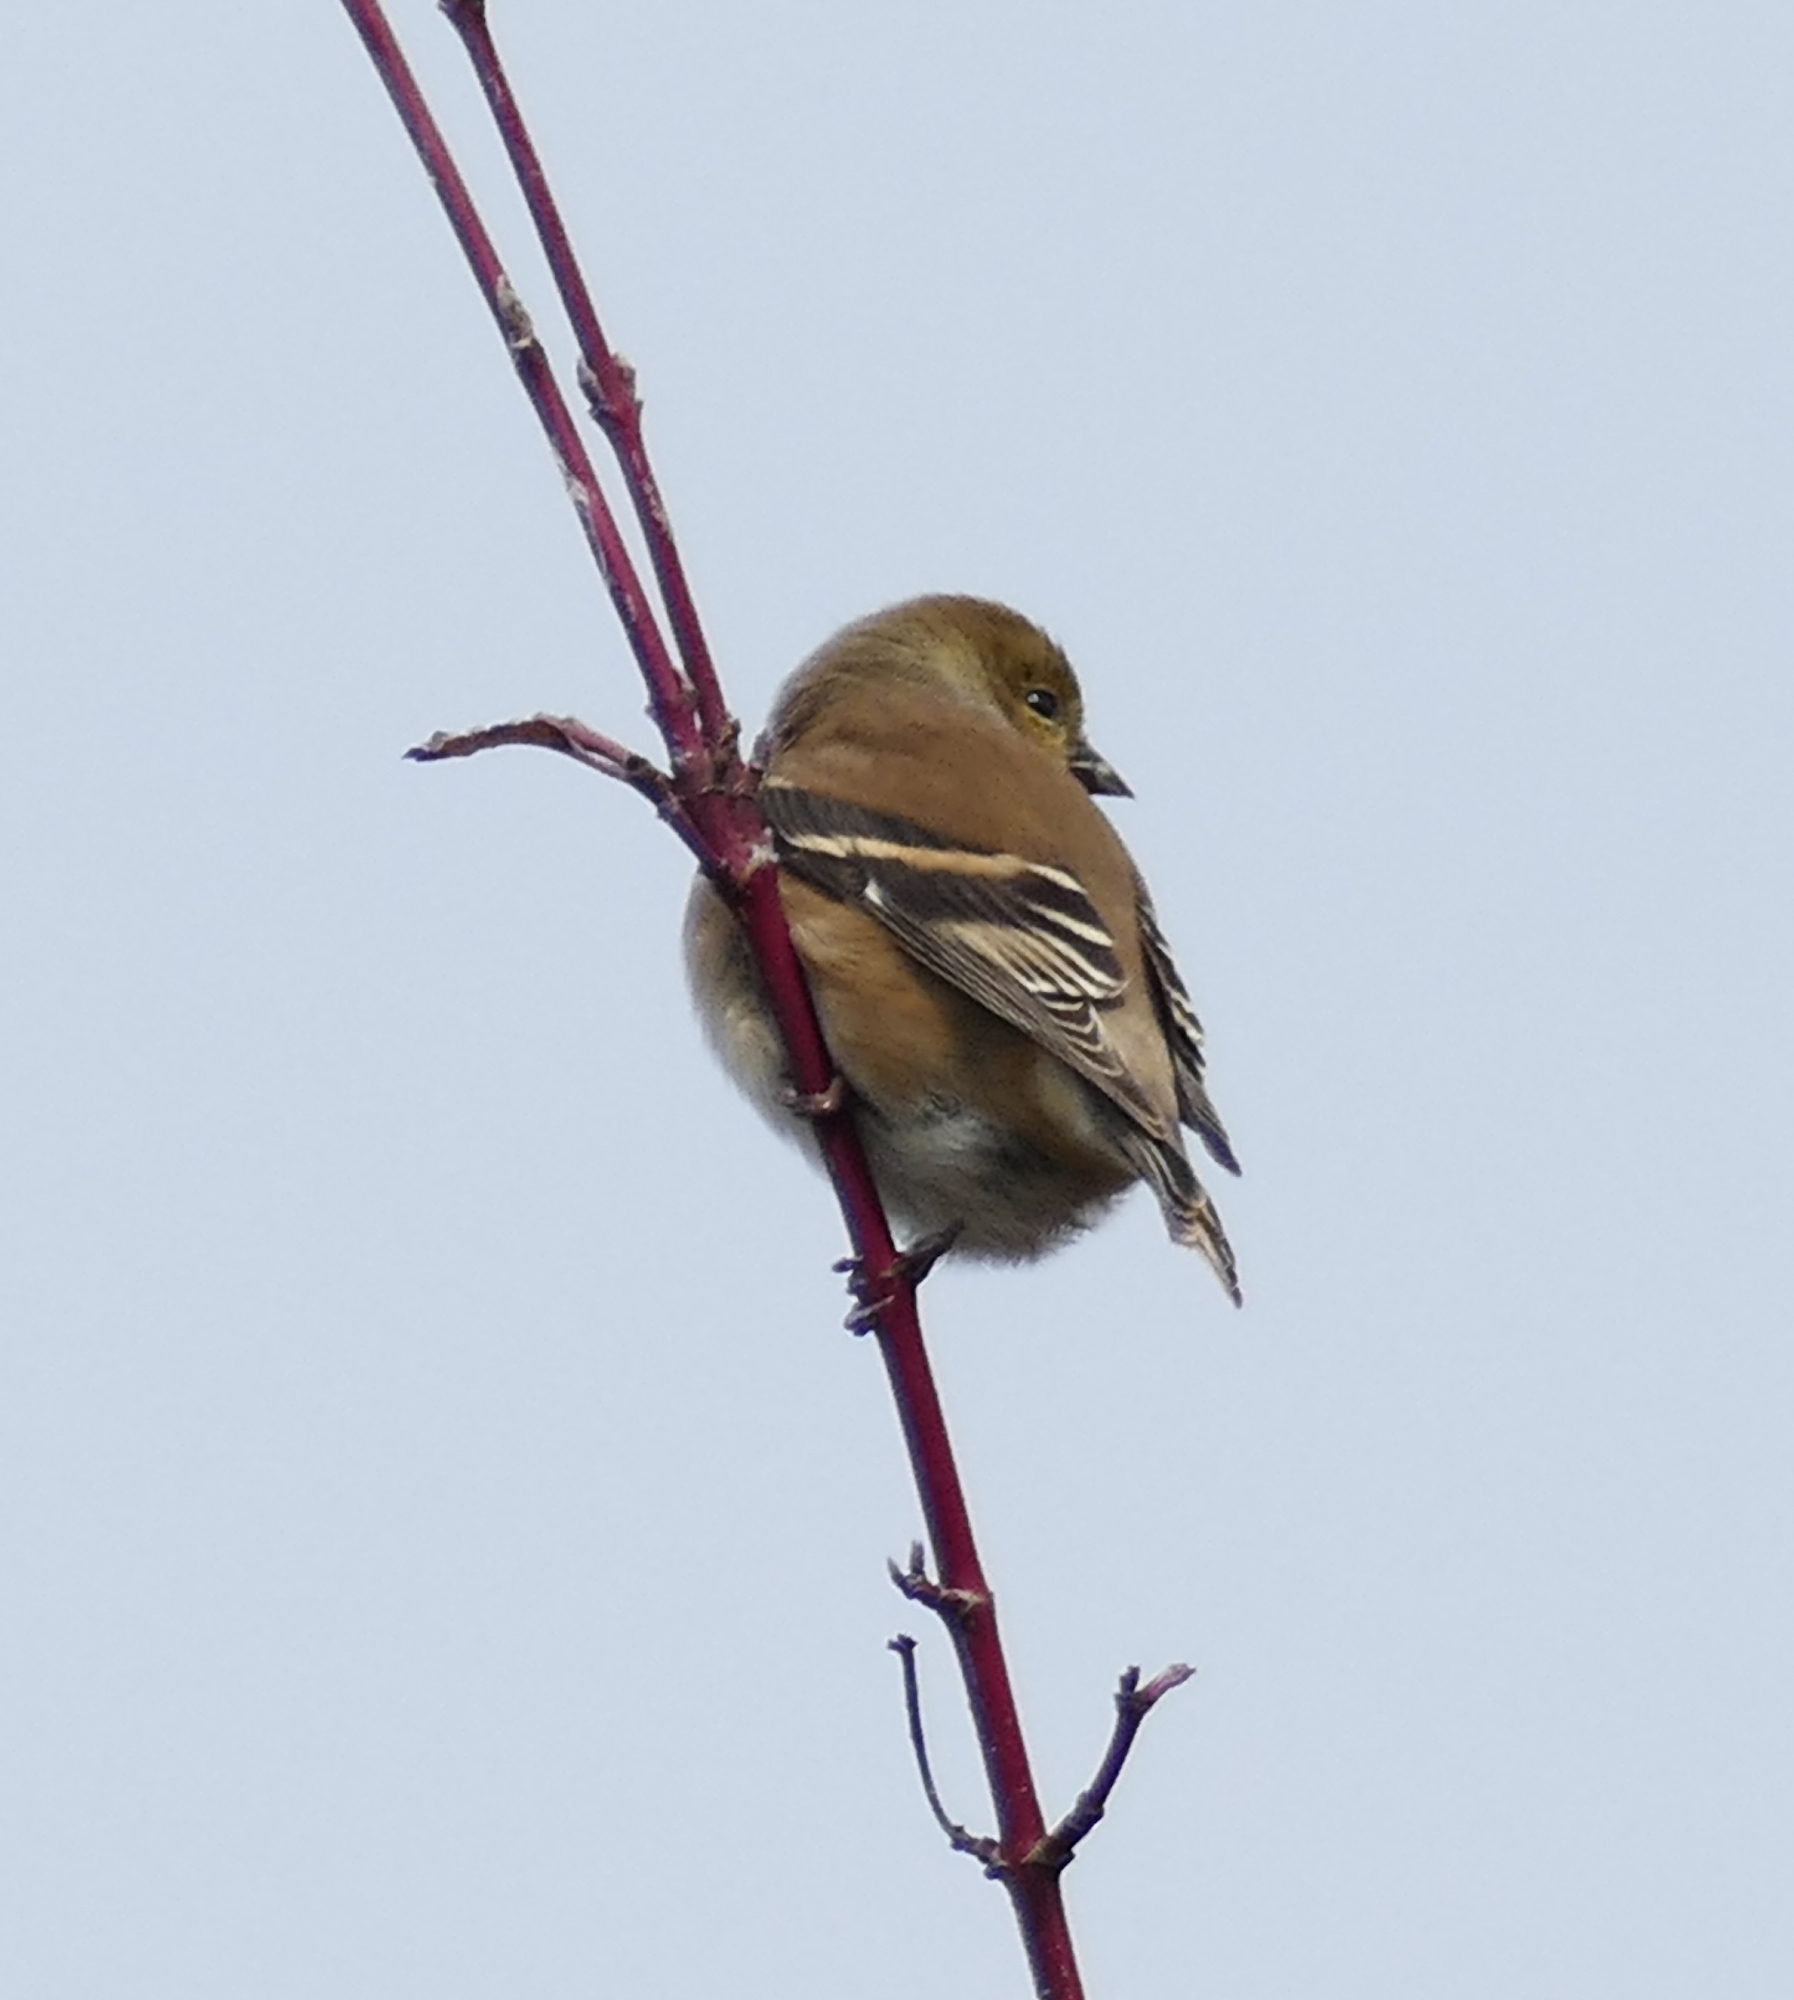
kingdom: Animalia
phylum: Chordata
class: Aves
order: Passeriformes
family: Fringillidae
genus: Spinus
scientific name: Spinus tristis
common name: American goldfinch
